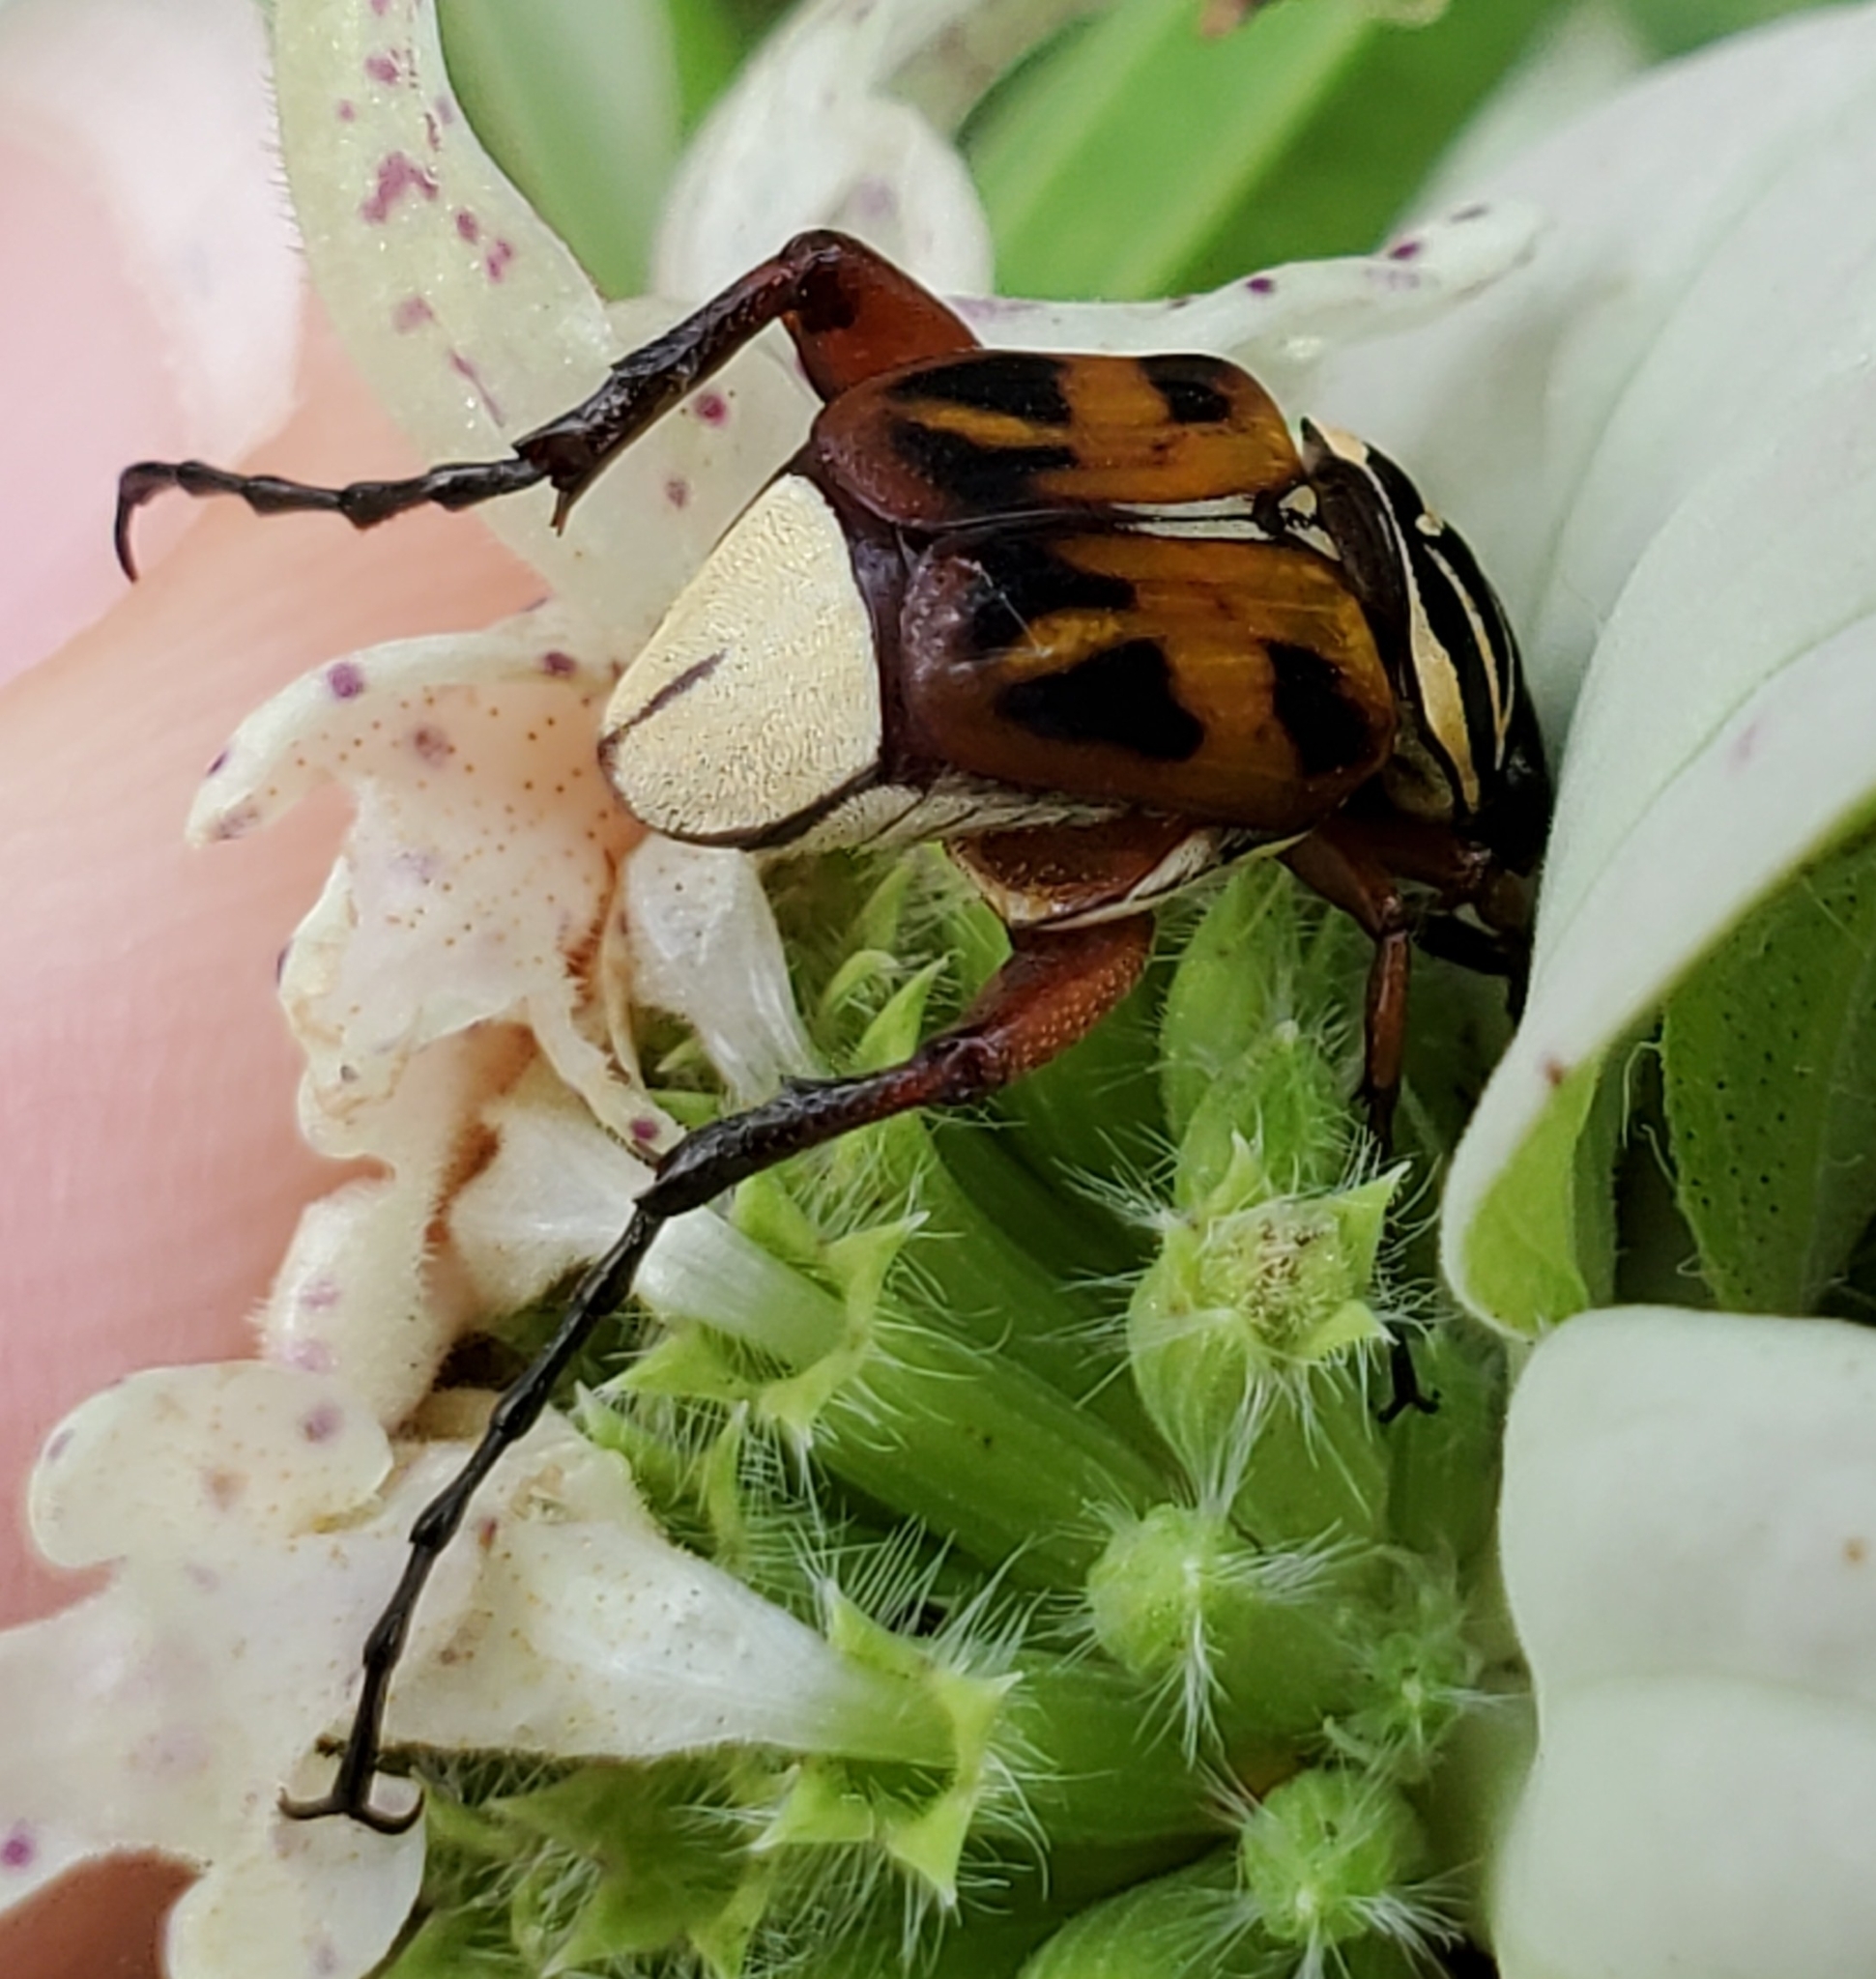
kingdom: Animalia
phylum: Arthropoda
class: Insecta
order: Coleoptera
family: Scarabaeidae
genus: Trigonopeltastes
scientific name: Trigonopeltastes delta
